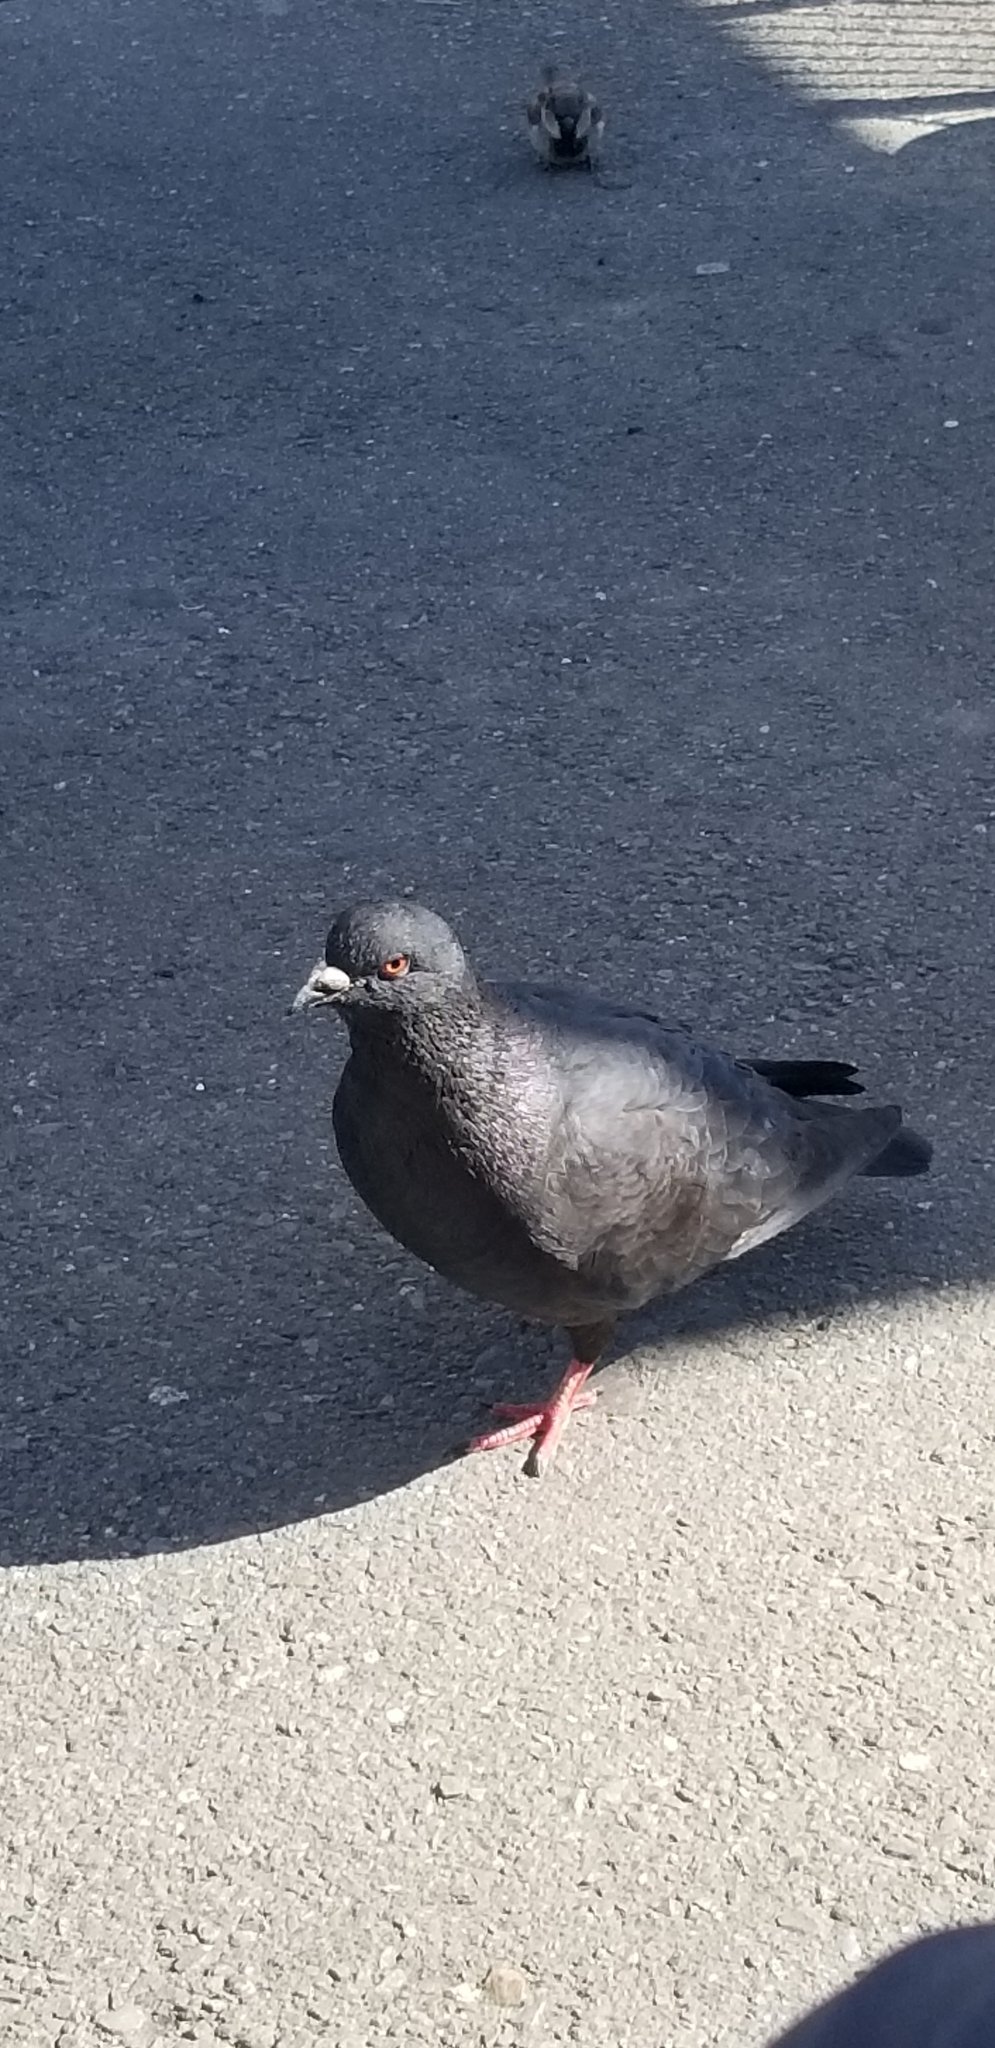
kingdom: Animalia
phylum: Chordata
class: Aves
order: Columbiformes
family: Columbidae
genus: Columba
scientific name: Columba livia
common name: Rock pigeon
